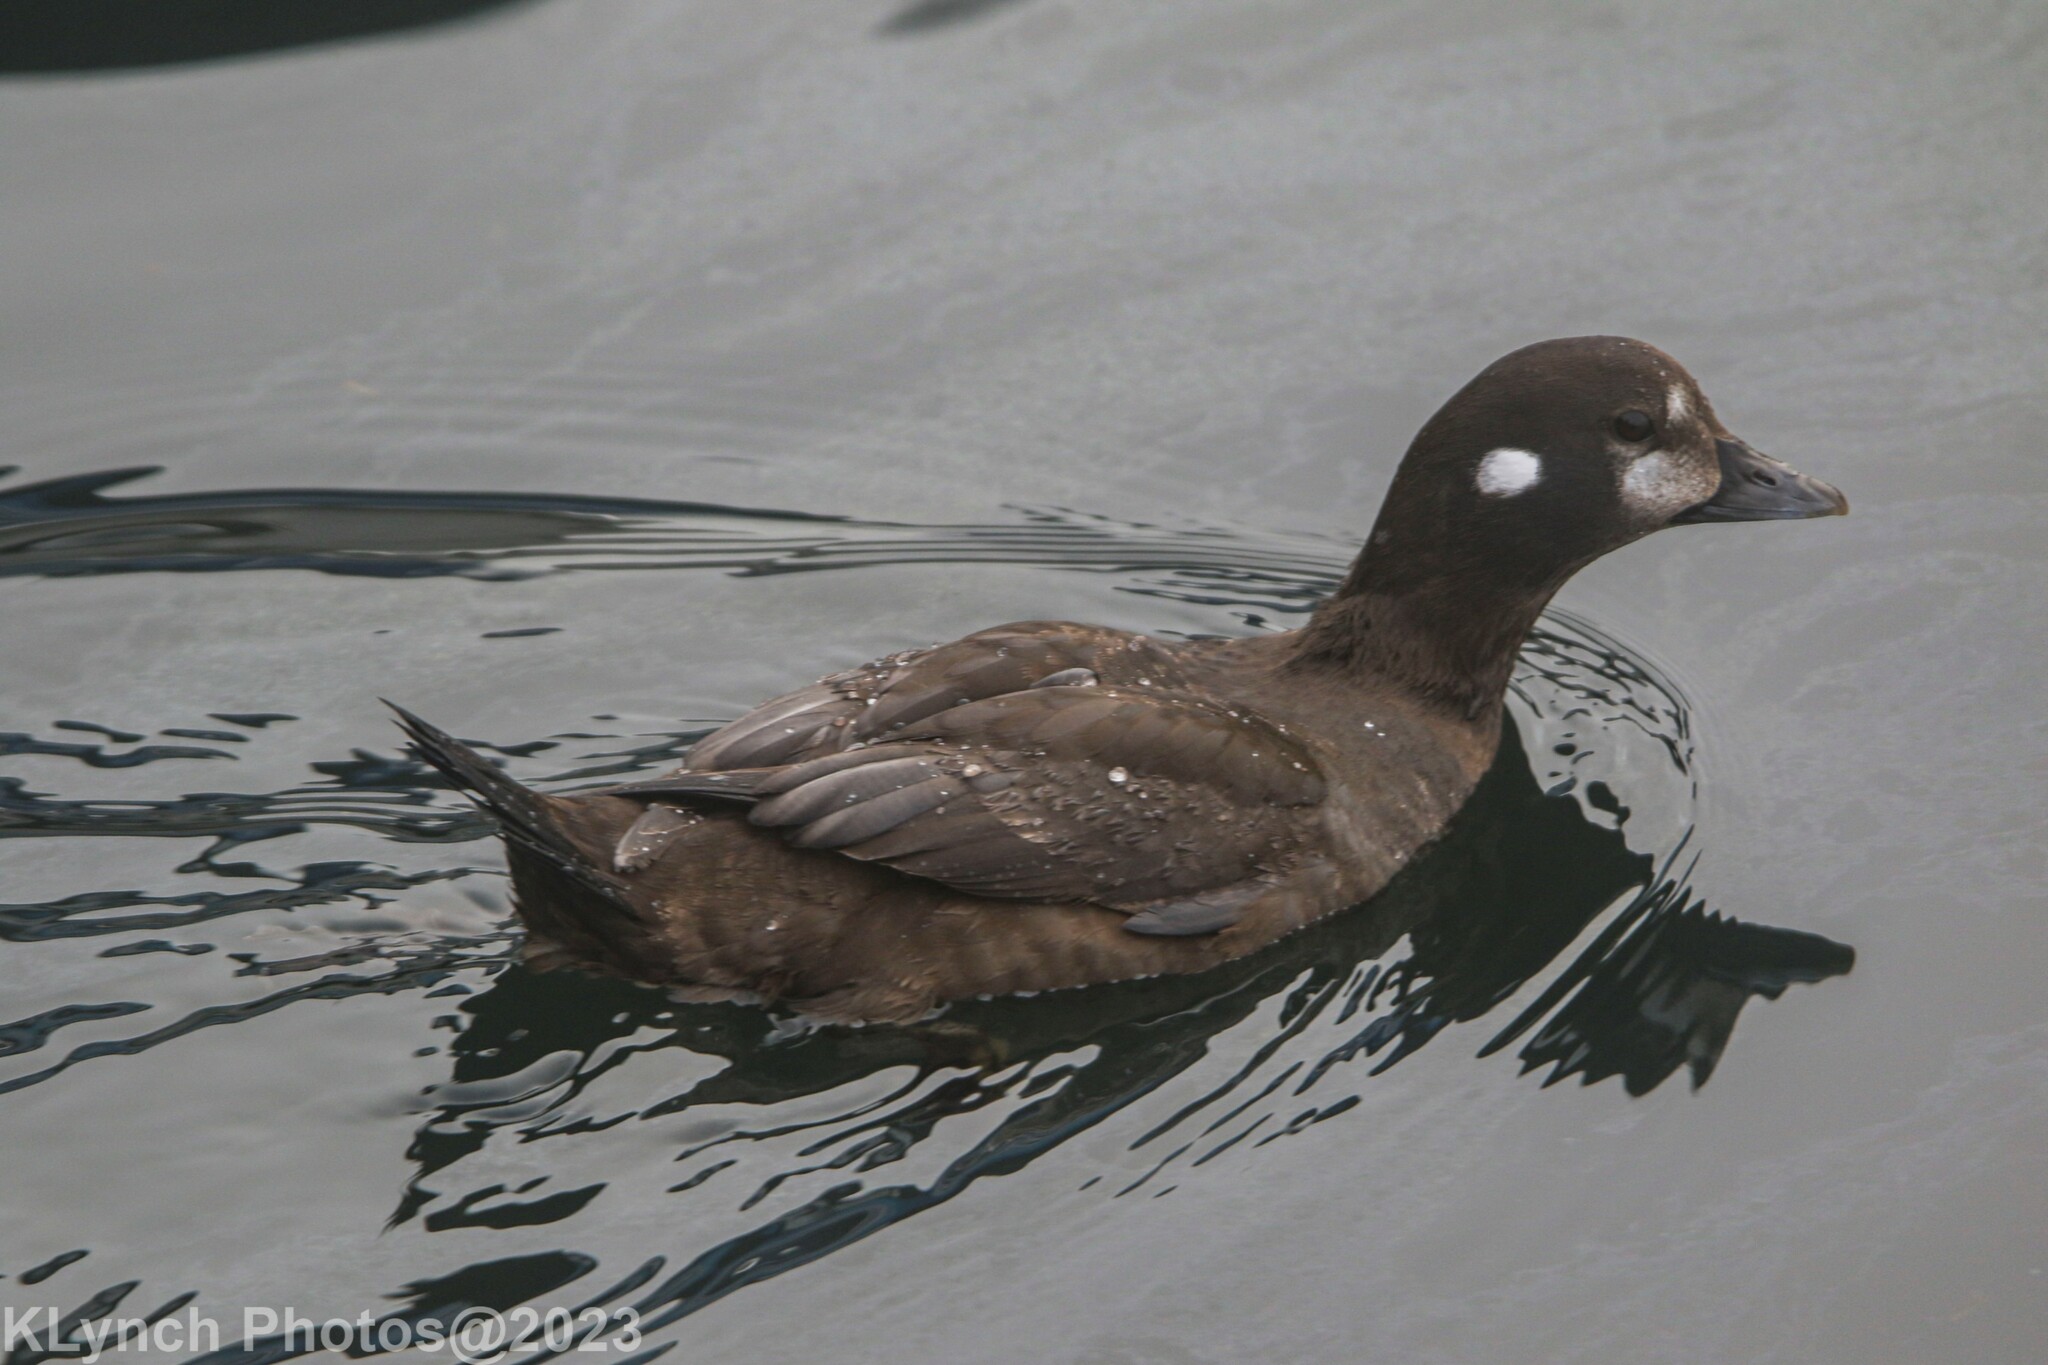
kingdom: Animalia
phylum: Chordata
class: Aves
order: Anseriformes
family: Anatidae
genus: Histrionicus
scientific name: Histrionicus histrionicus
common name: Harlequin duck
